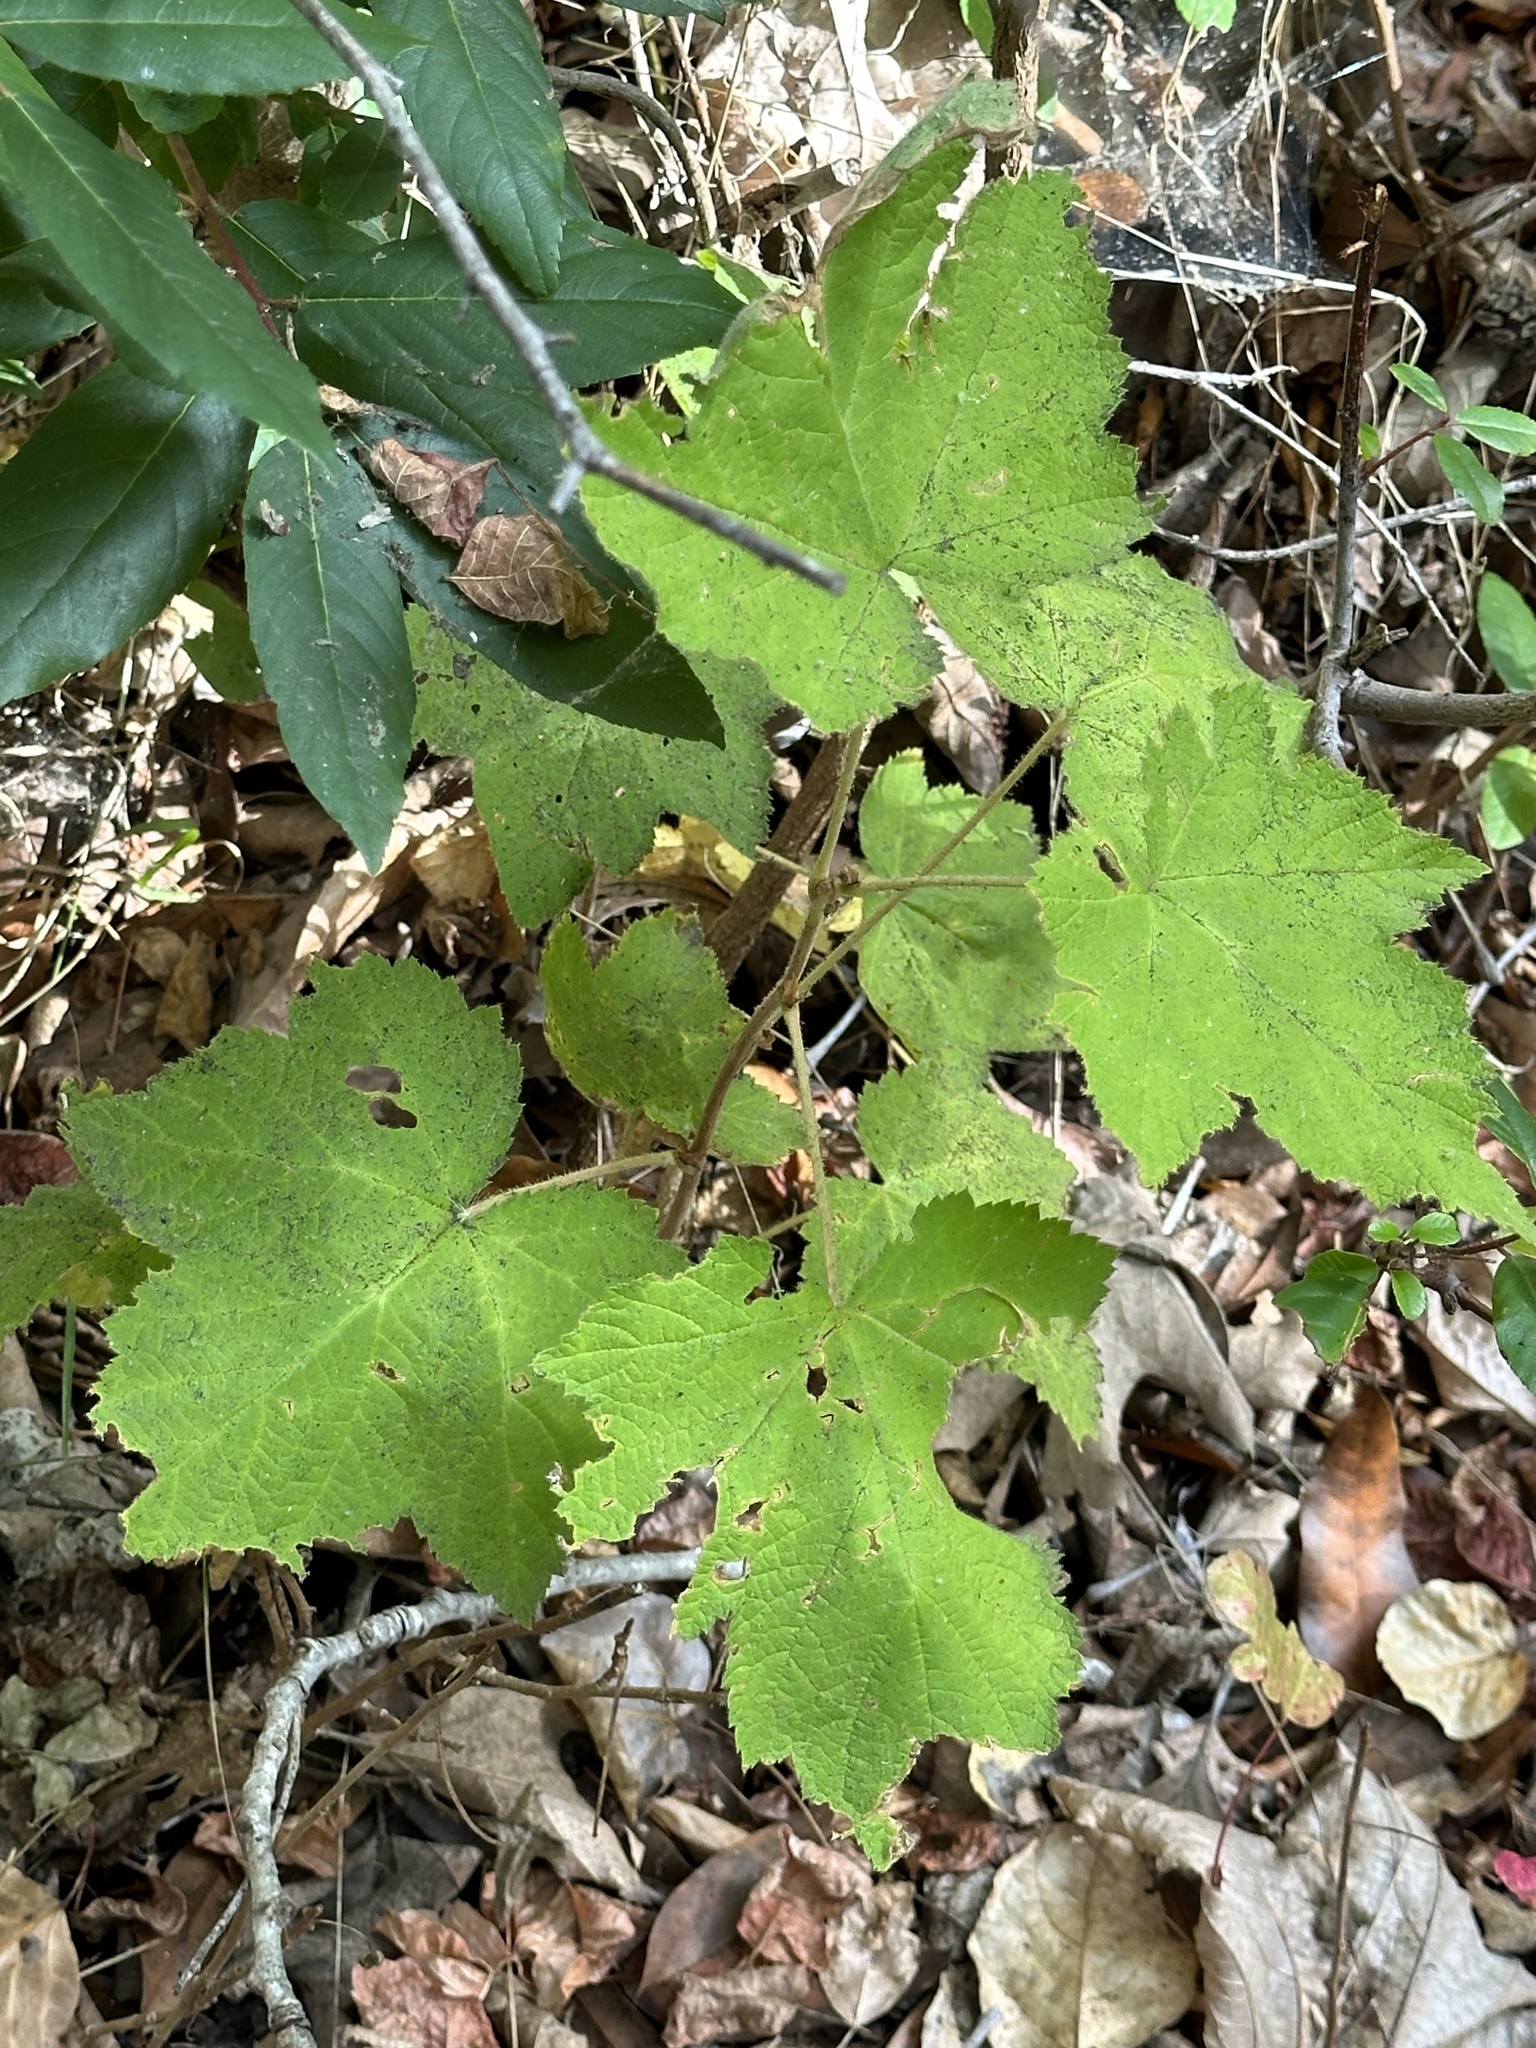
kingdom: Plantae
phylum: Tracheophyta
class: Magnoliopsida
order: Rosales
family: Rosaceae
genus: Rubus
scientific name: Rubus parviflorus
